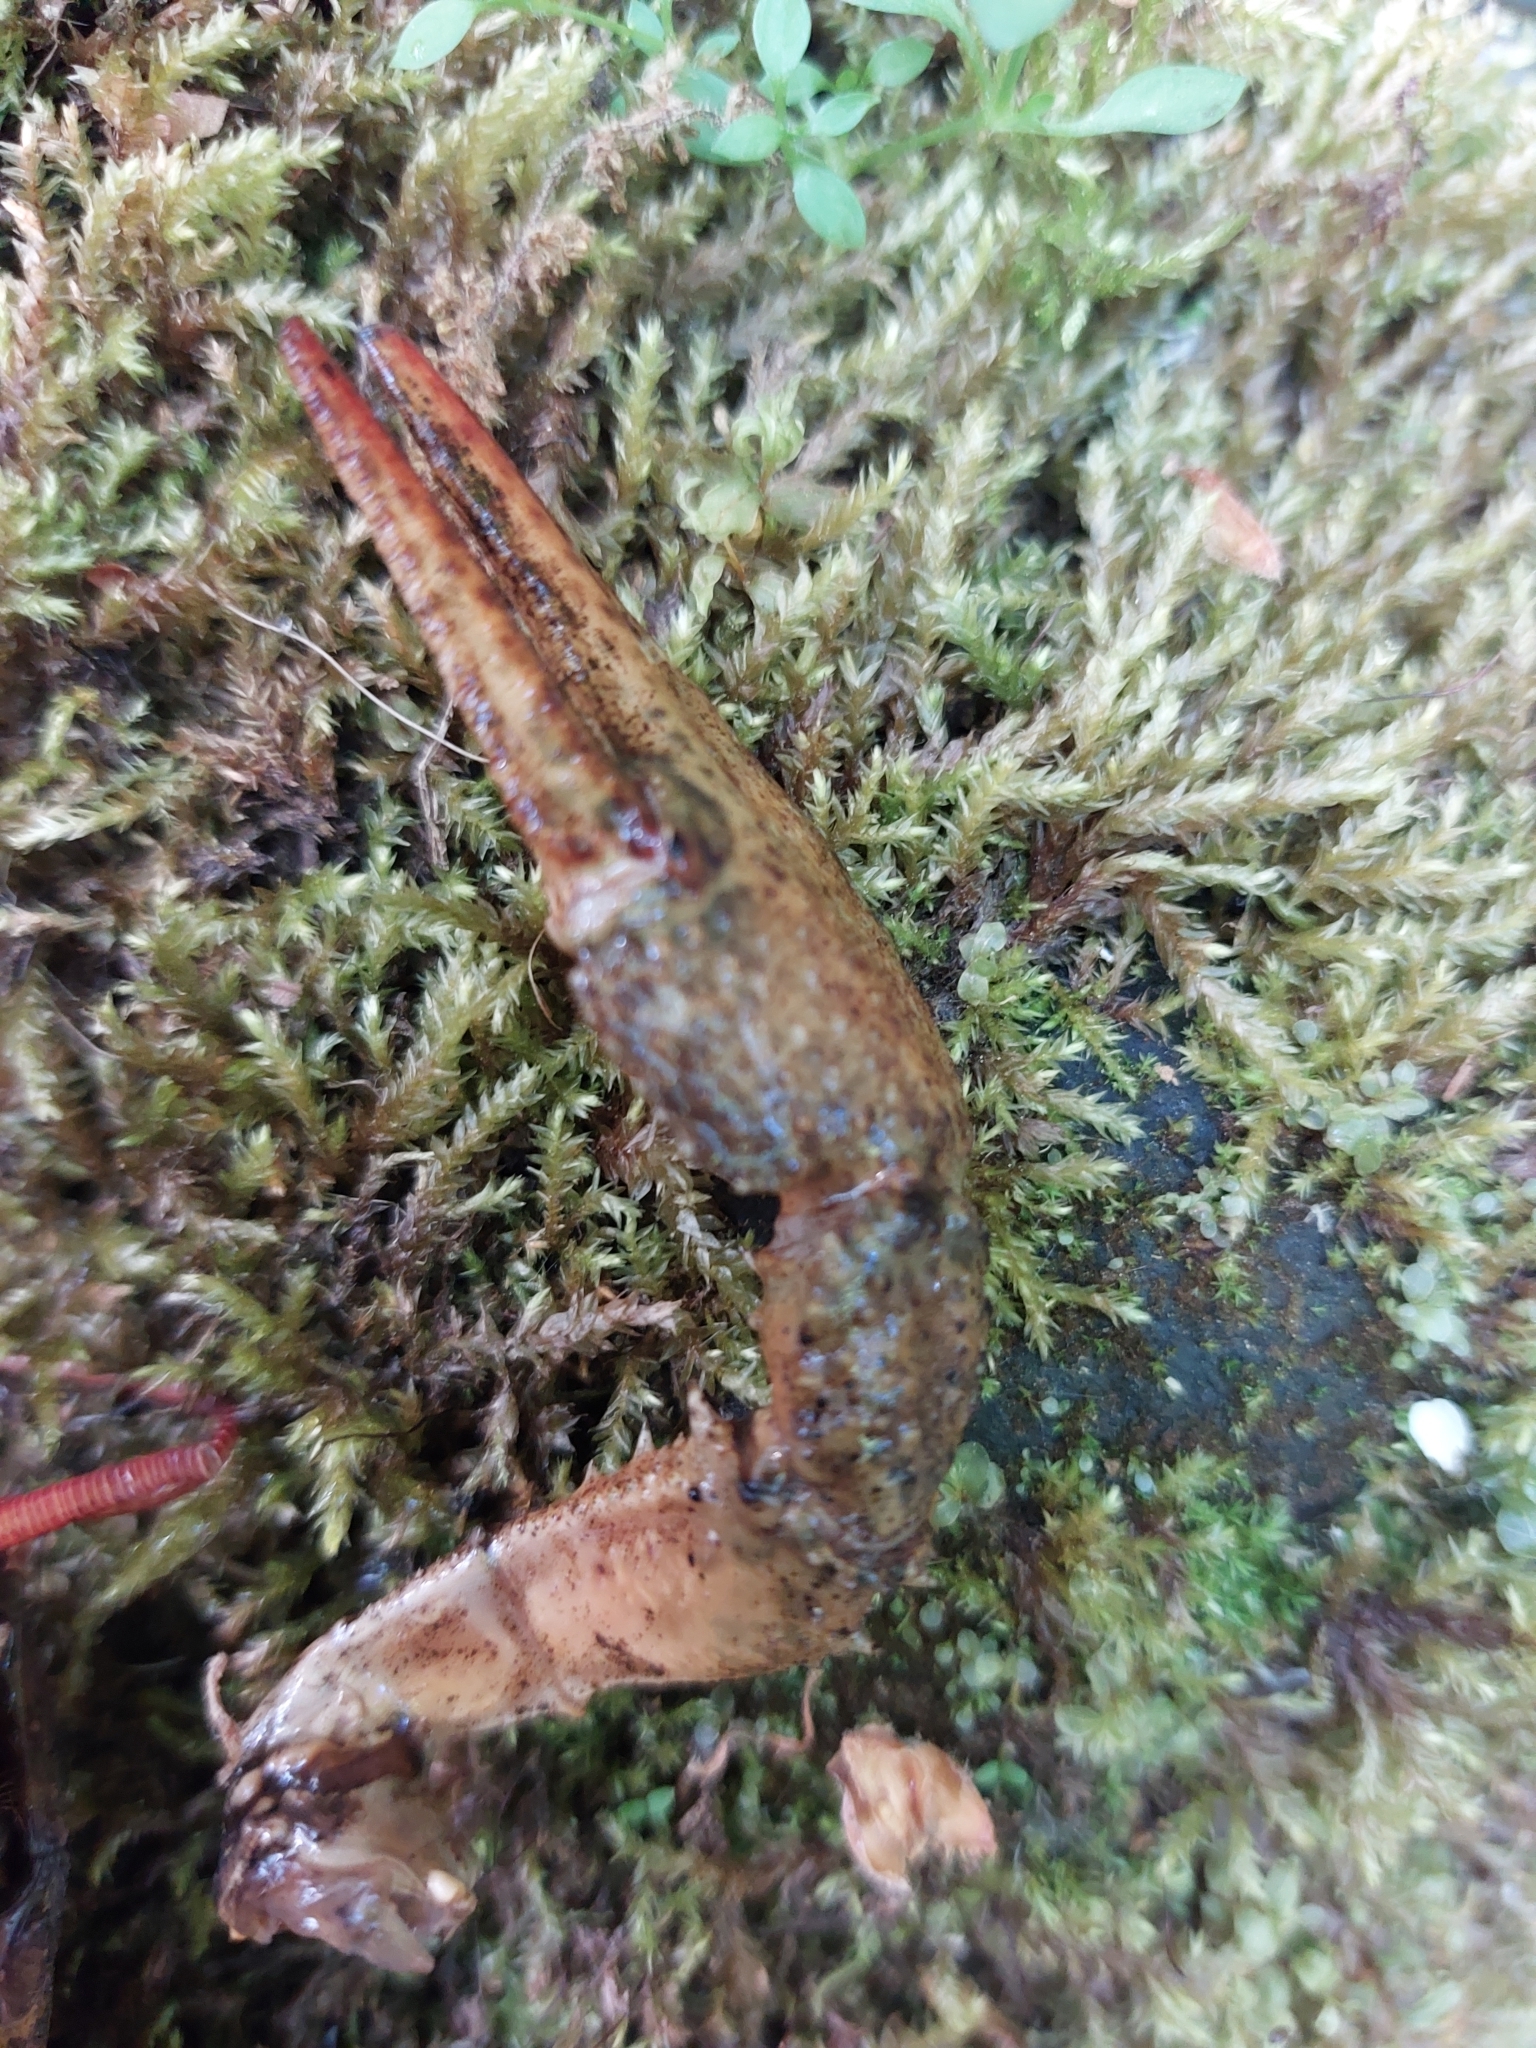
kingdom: Animalia
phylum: Arthropoda
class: Malacostraca
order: Decapoda
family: Astacidae
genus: Austropotamobius
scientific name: Austropotamobius pallipes
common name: White-clawed crayfish
